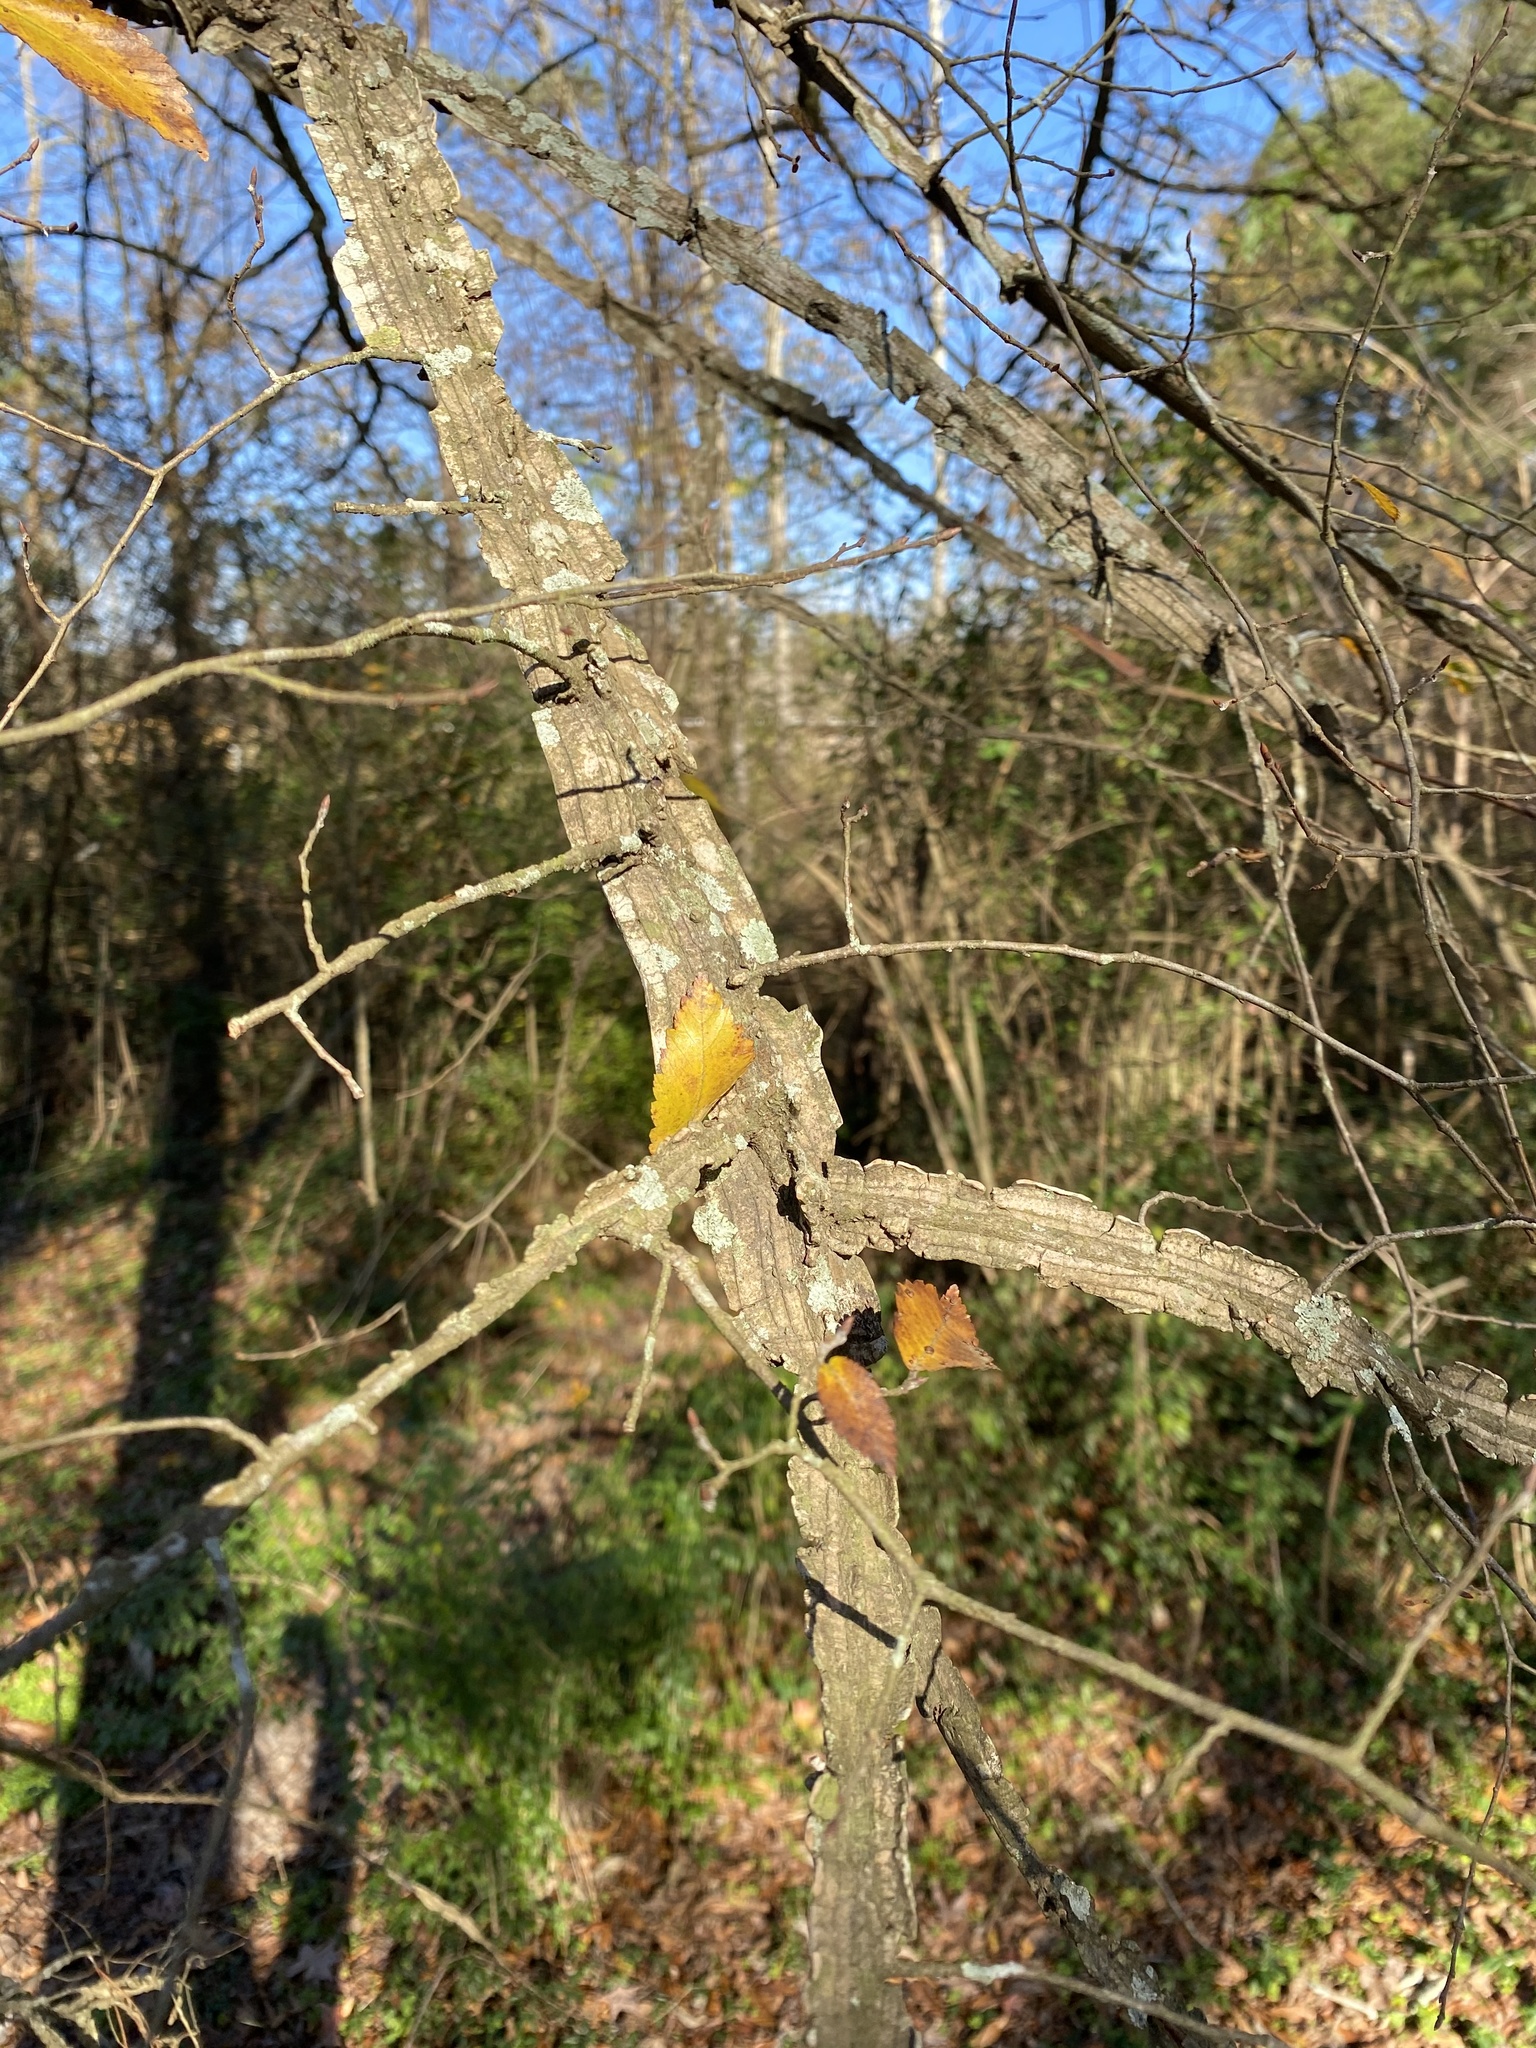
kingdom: Plantae
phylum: Tracheophyta
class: Magnoliopsida
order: Rosales
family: Ulmaceae
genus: Ulmus
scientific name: Ulmus alata
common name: Winged elm
